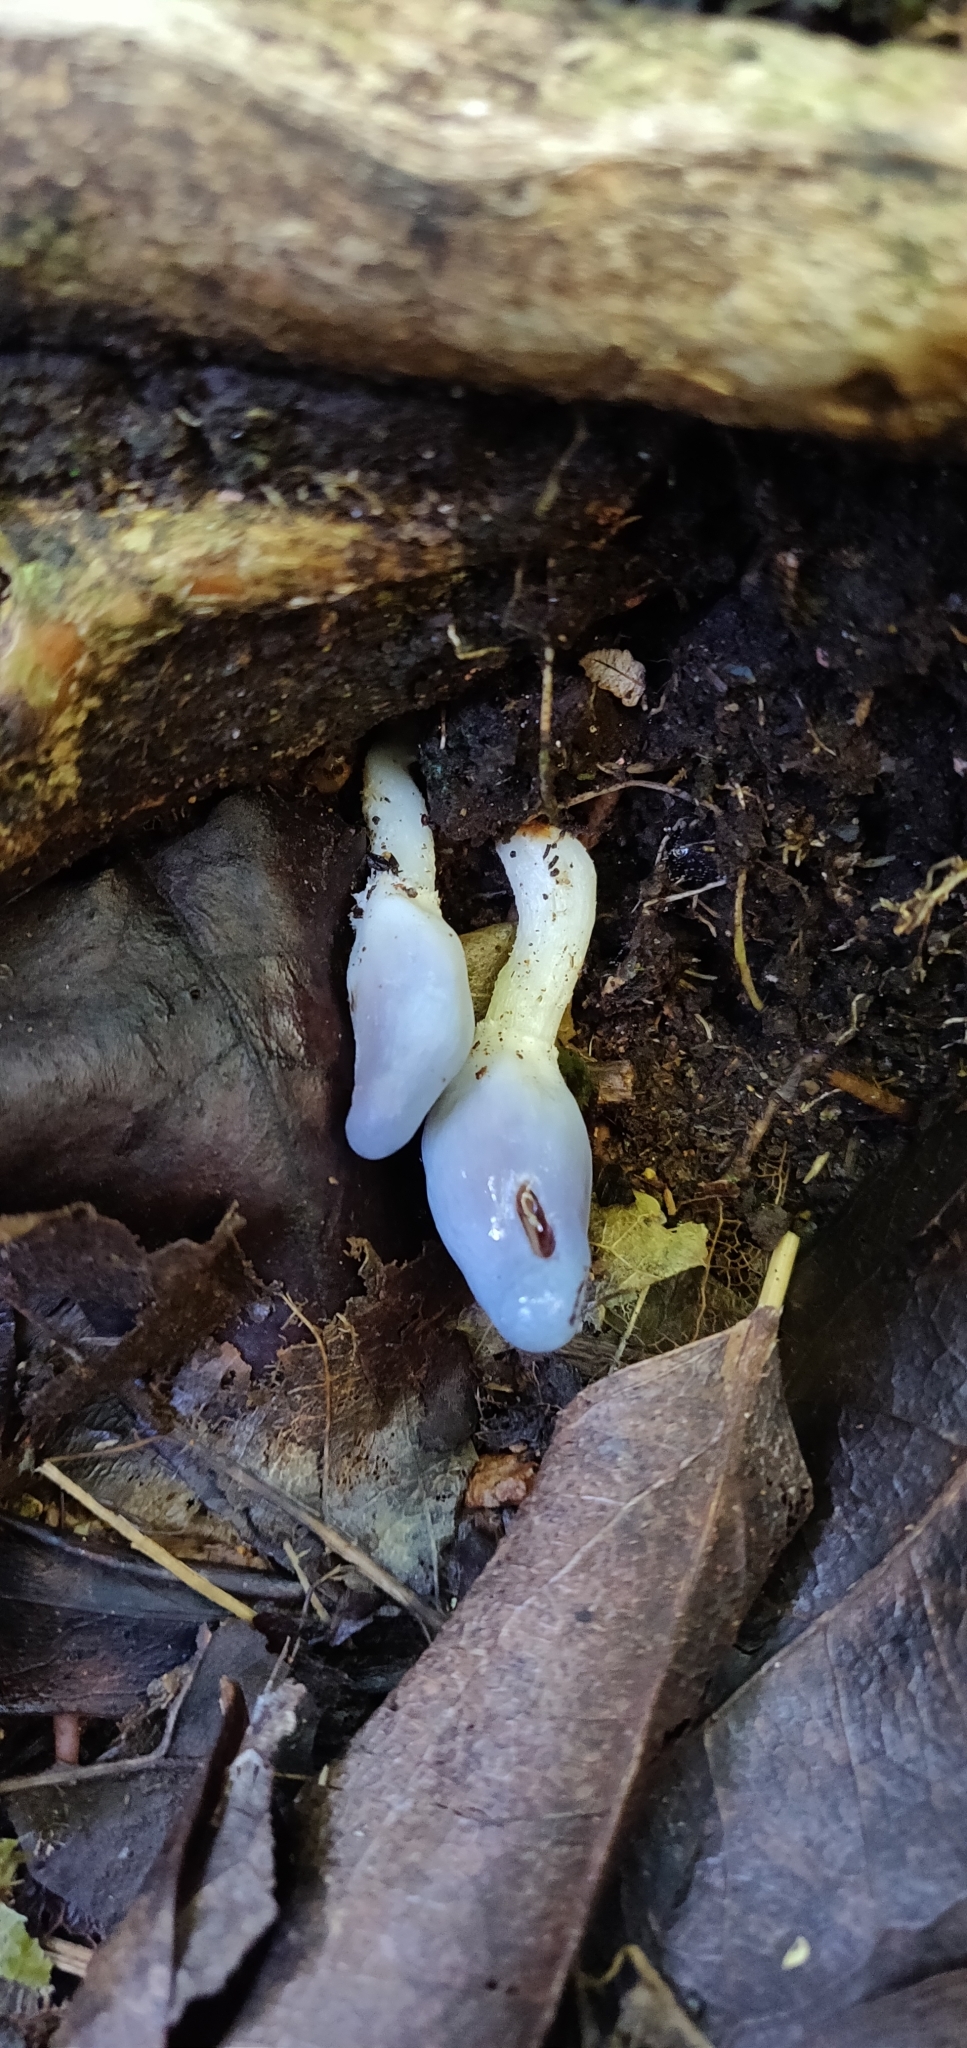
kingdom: Fungi
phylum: Basidiomycota
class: Agaricomycetes
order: Agaricales
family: Agaricaceae
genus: Clavogaster
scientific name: Clavogaster virescens
